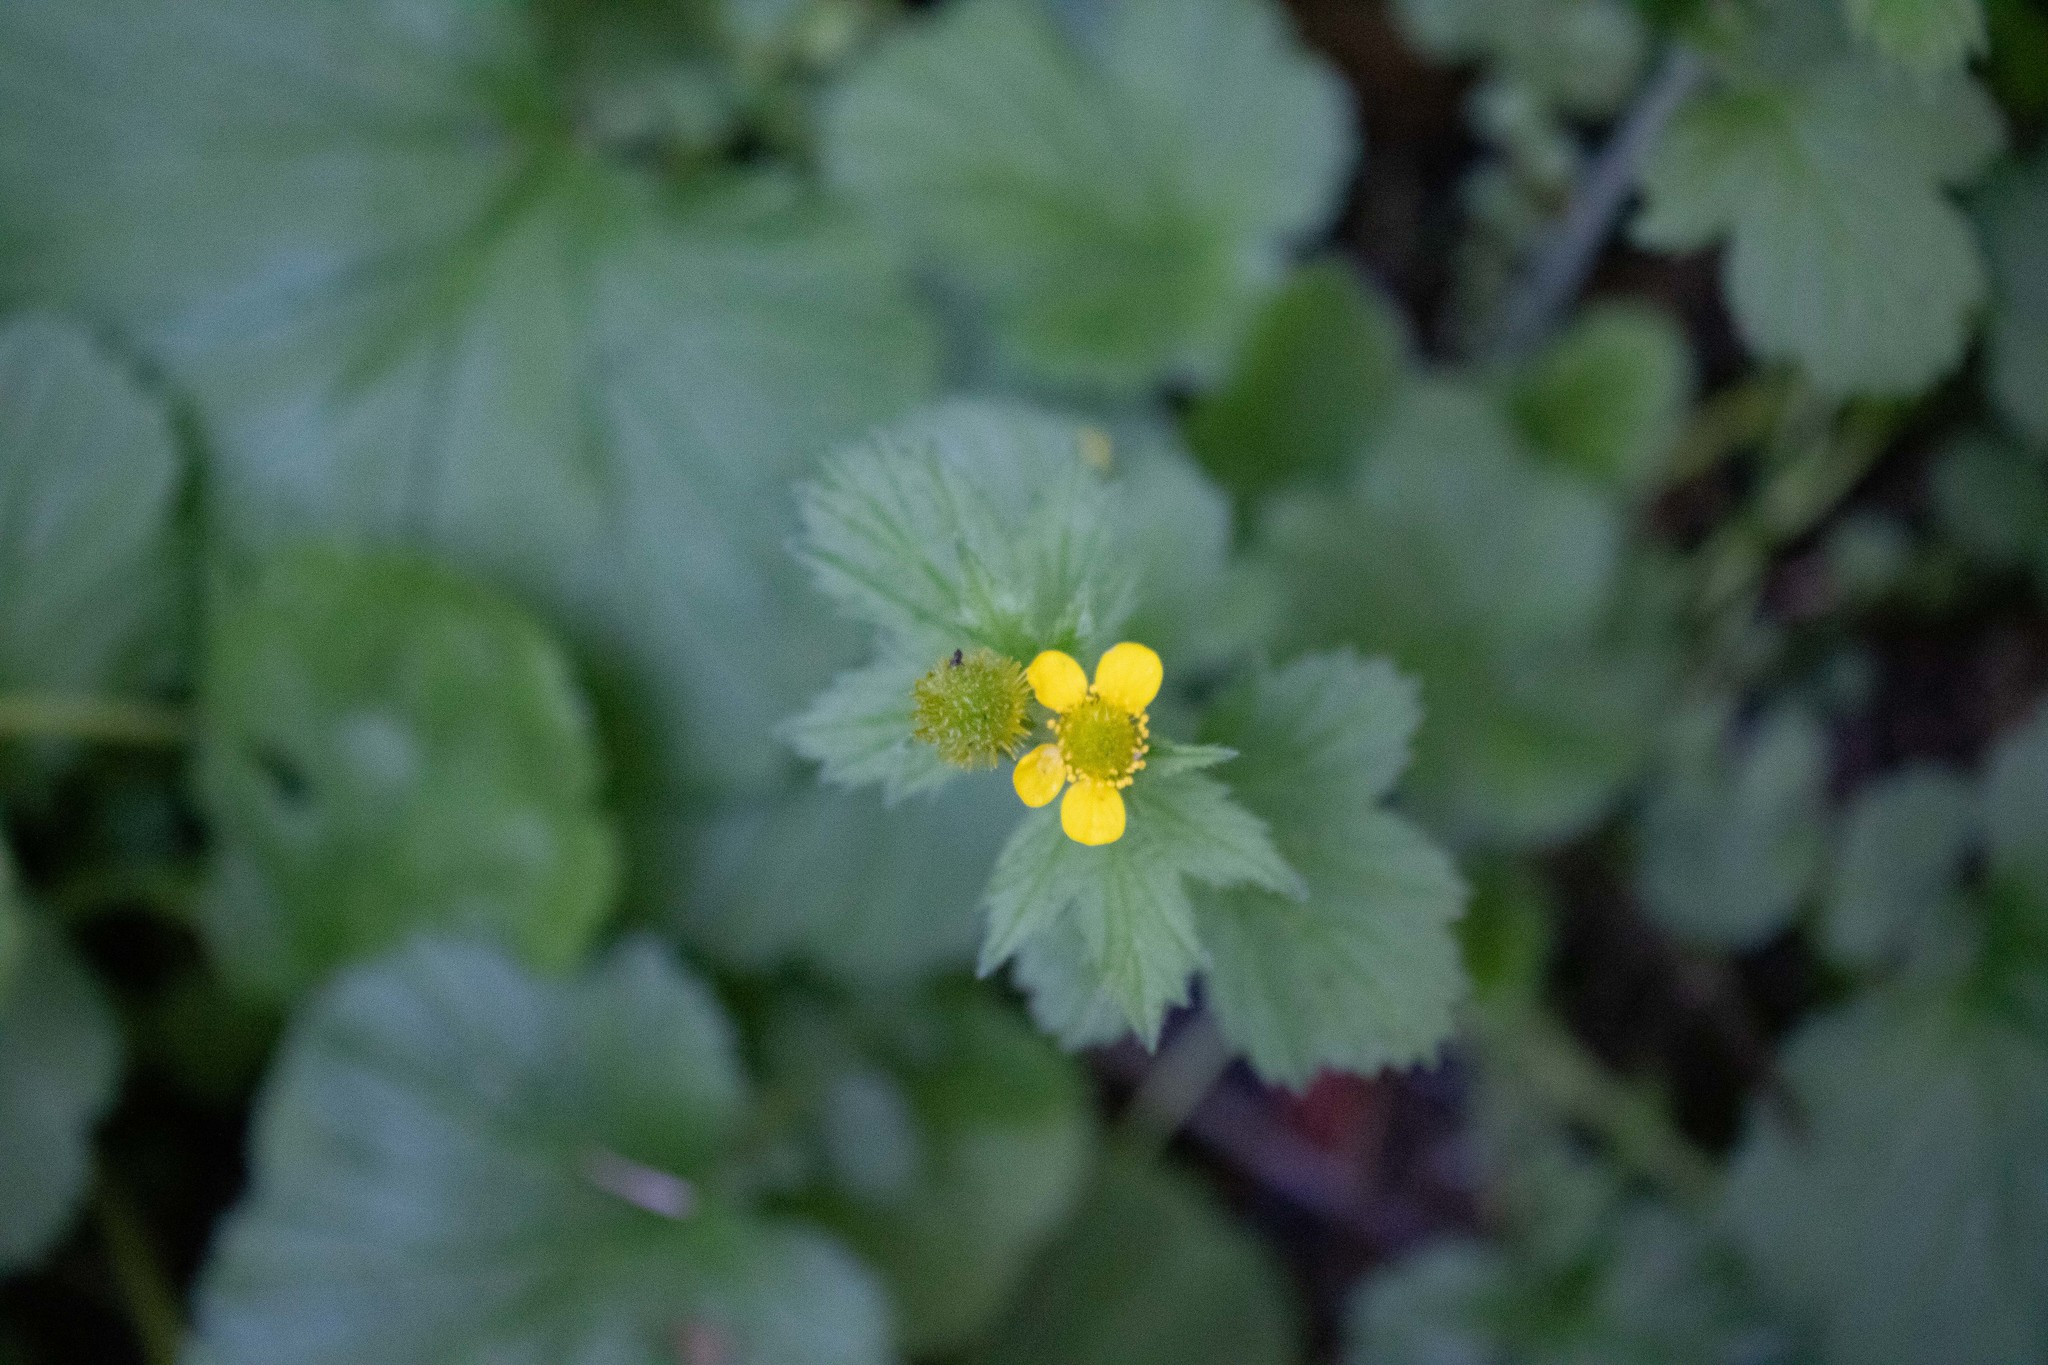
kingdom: Plantae
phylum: Tracheophyta
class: Magnoliopsida
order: Rosales
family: Rosaceae
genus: Geum
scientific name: Geum macrophyllum
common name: Large-leaved avens
